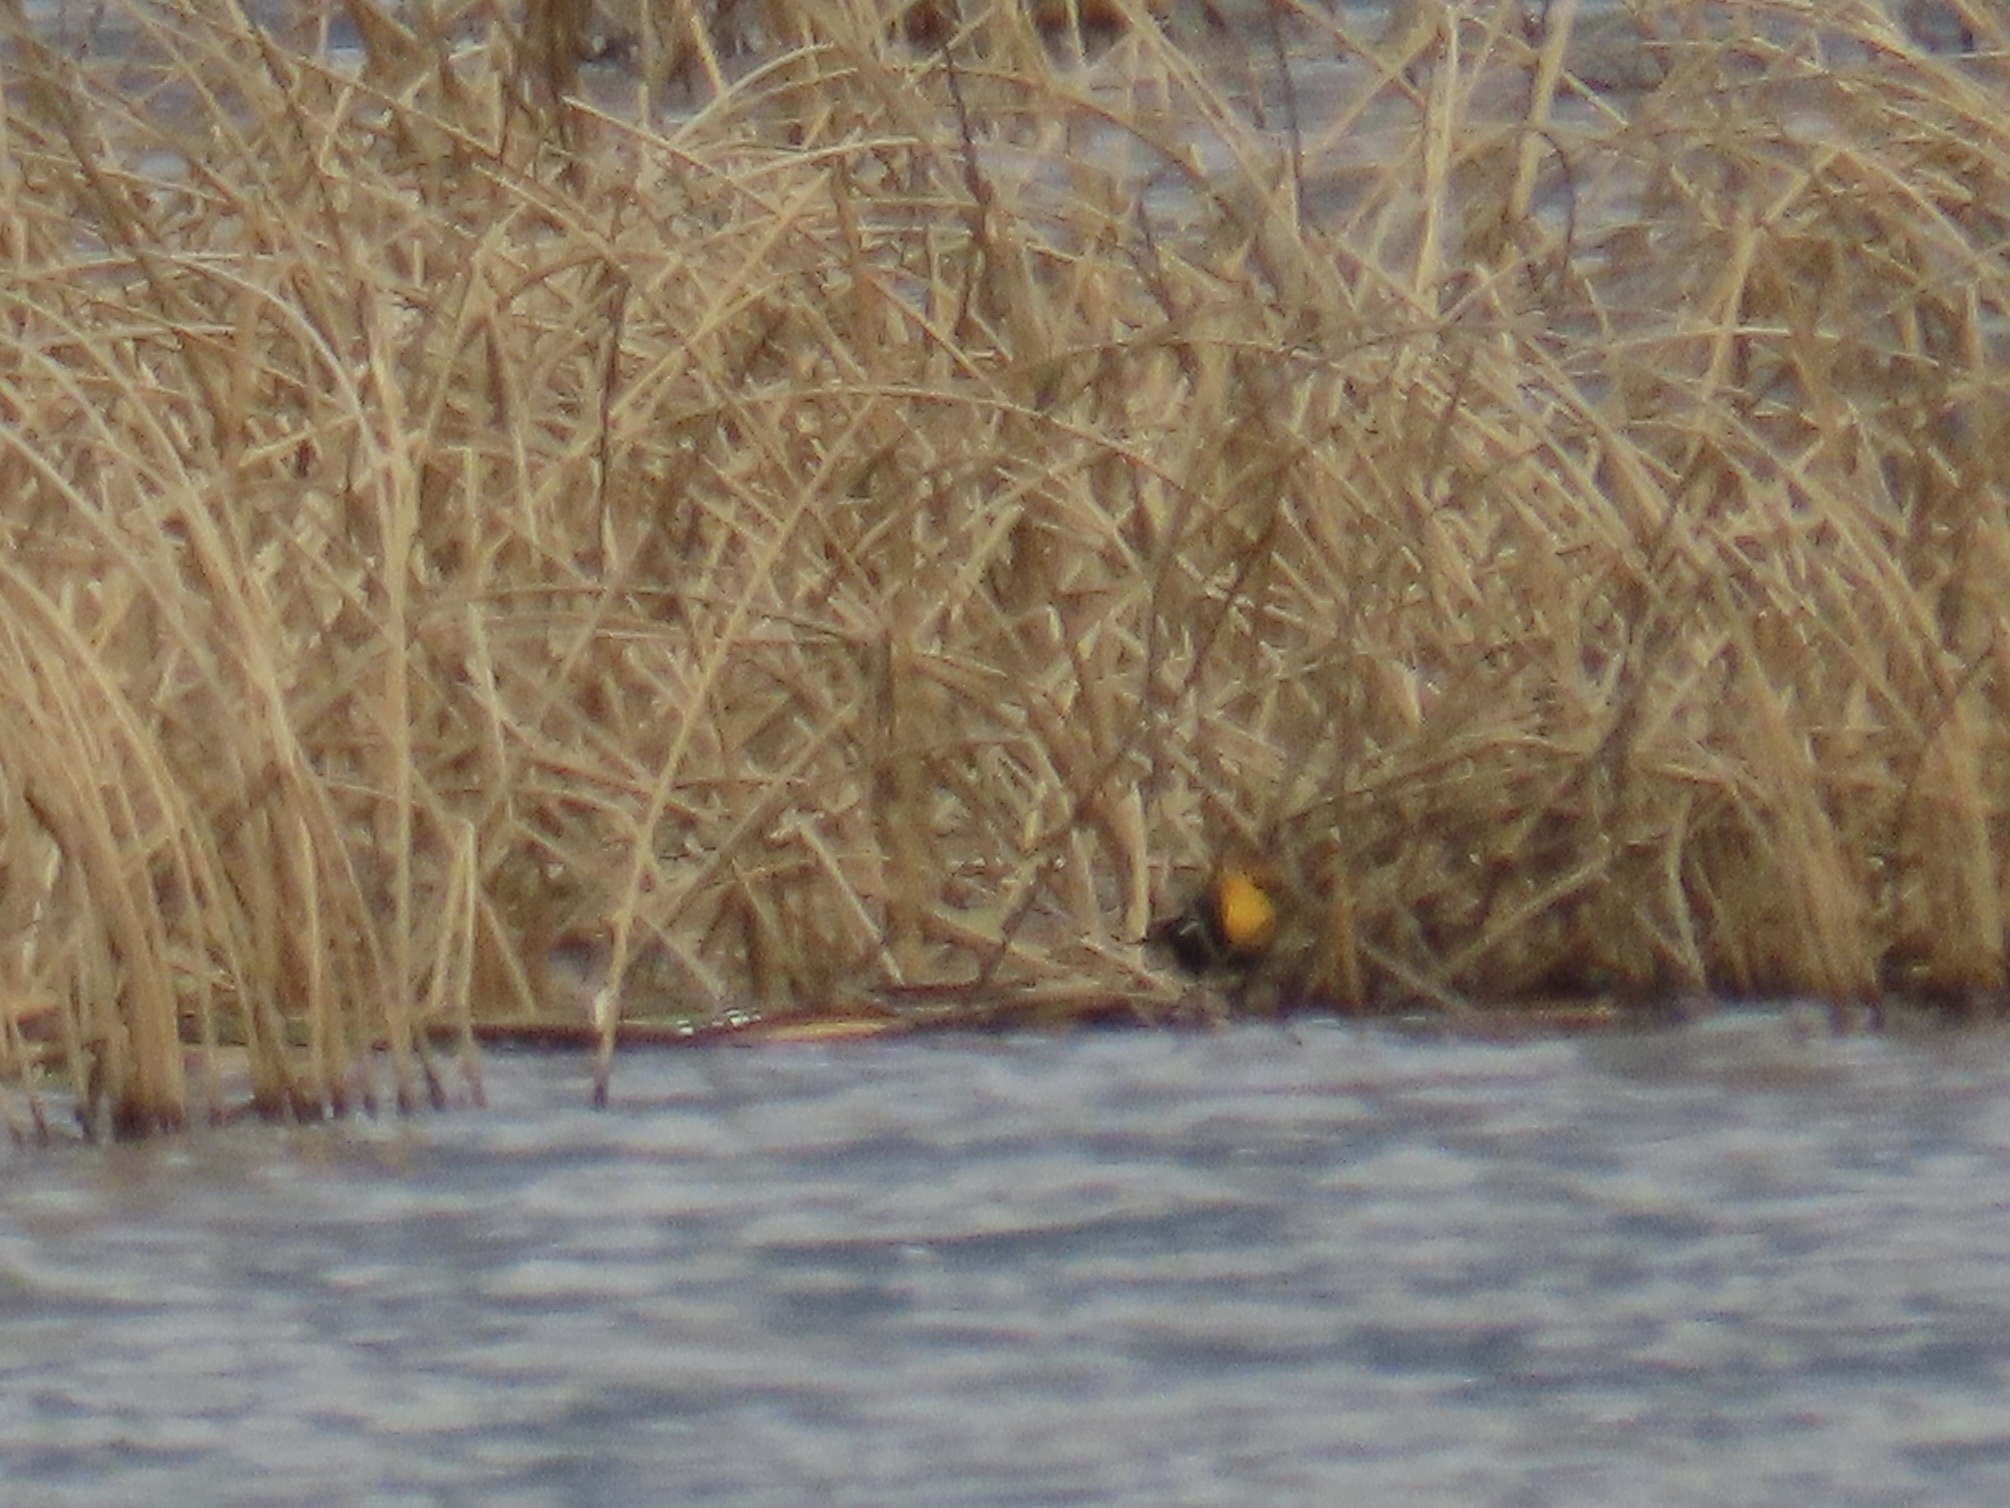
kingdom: Animalia
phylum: Chordata
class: Aves
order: Passeriformes
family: Icteridae
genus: Xanthocephalus
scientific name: Xanthocephalus xanthocephalus
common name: Yellow-headed blackbird
